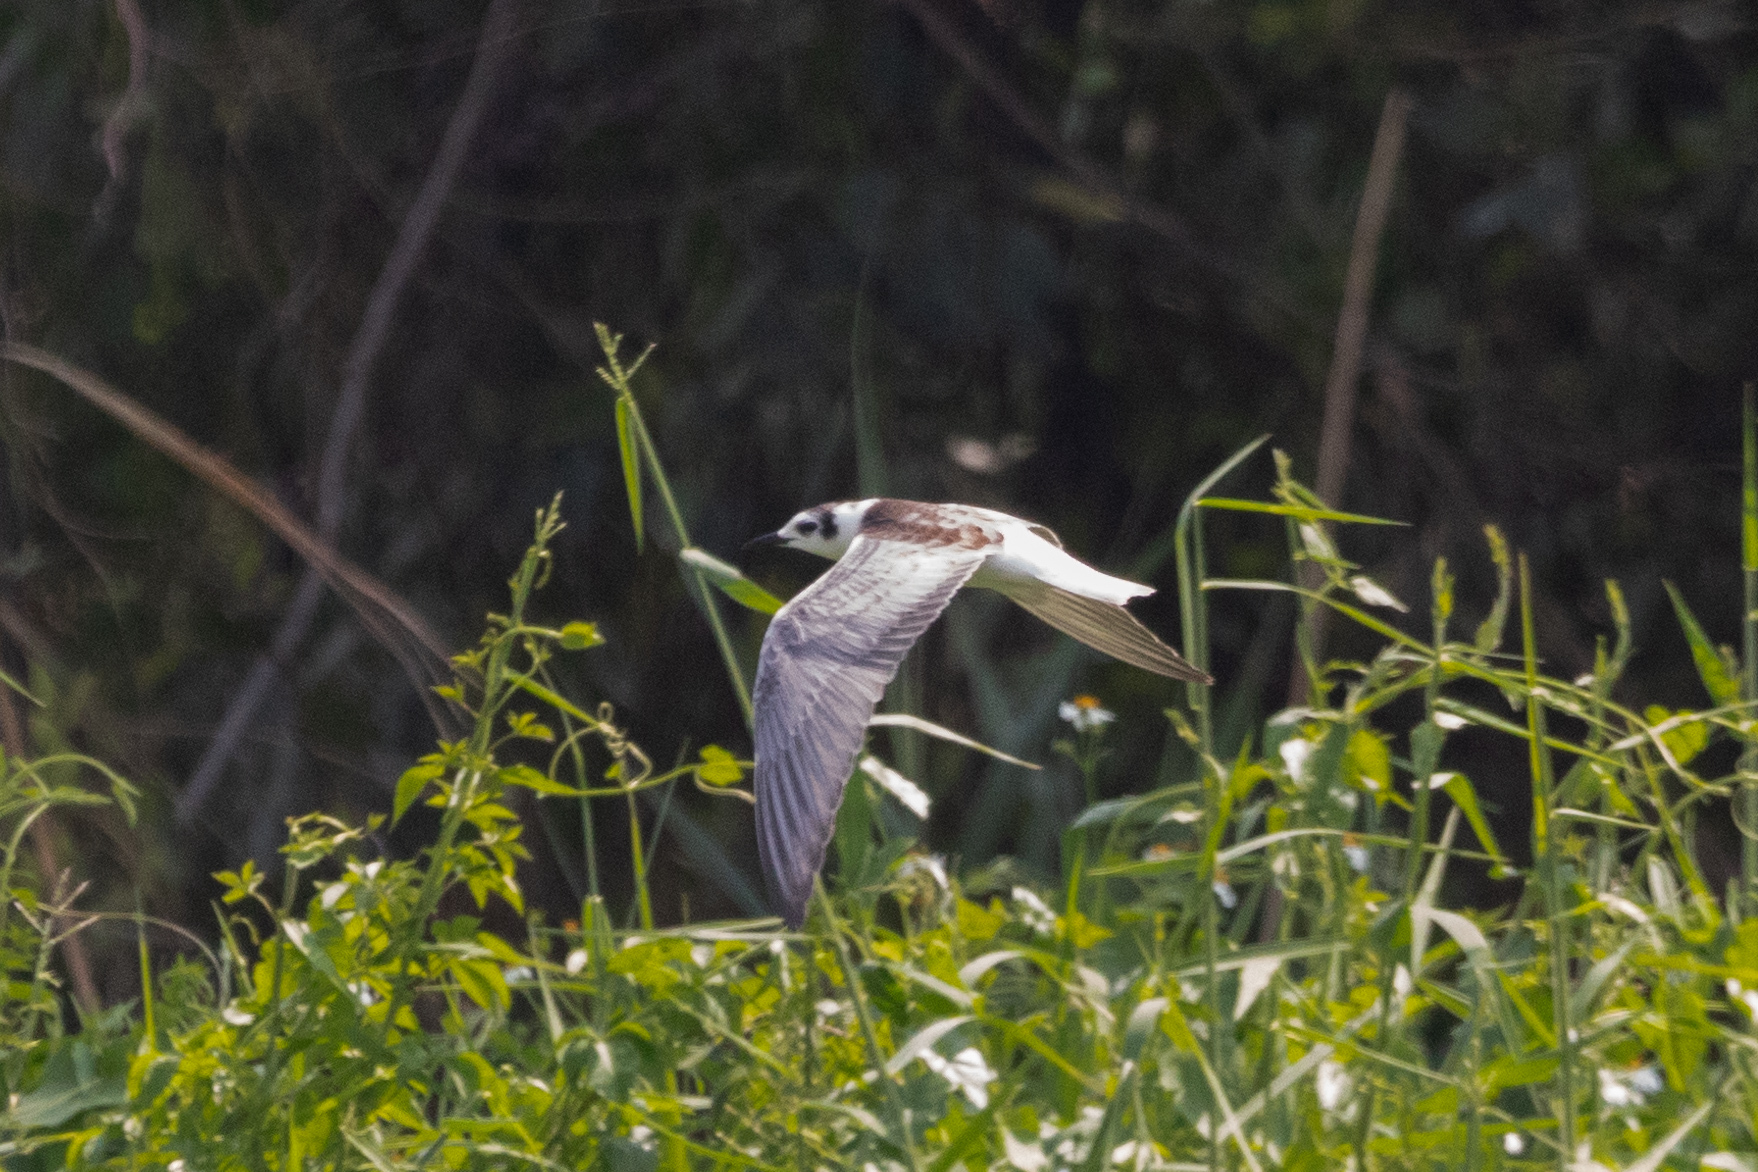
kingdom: Animalia
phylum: Chordata
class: Aves
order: Charadriiformes
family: Laridae
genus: Chlidonias
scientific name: Chlidonias leucopterus
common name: White-winged tern
